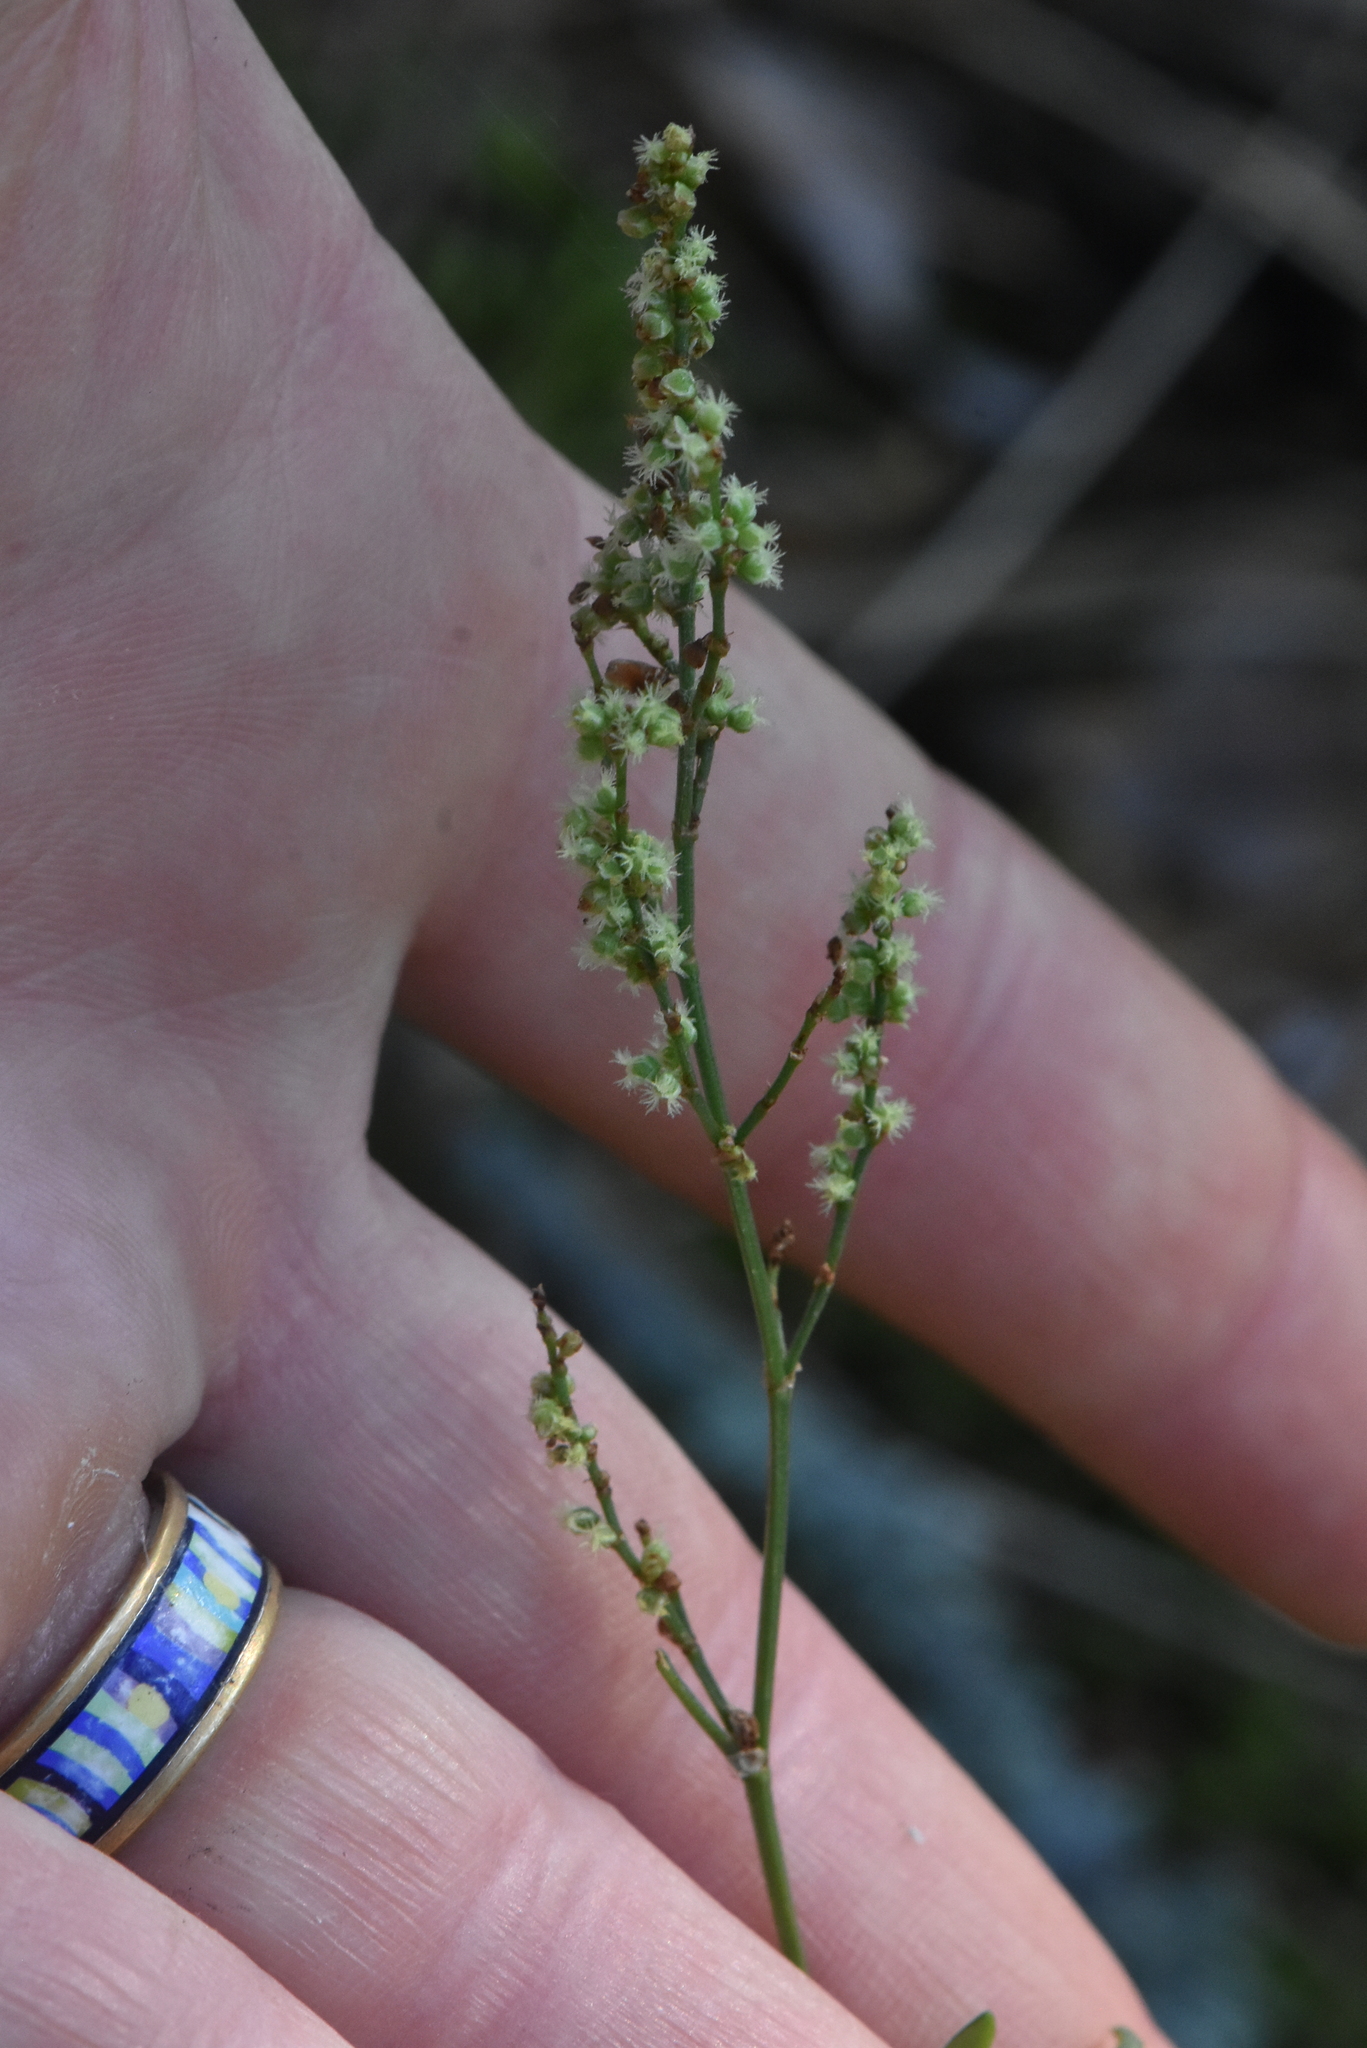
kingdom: Plantae
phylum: Tracheophyta
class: Magnoliopsida
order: Caryophyllales
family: Polygonaceae
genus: Rumex
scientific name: Rumex acetosella
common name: Common sheep sorrel
